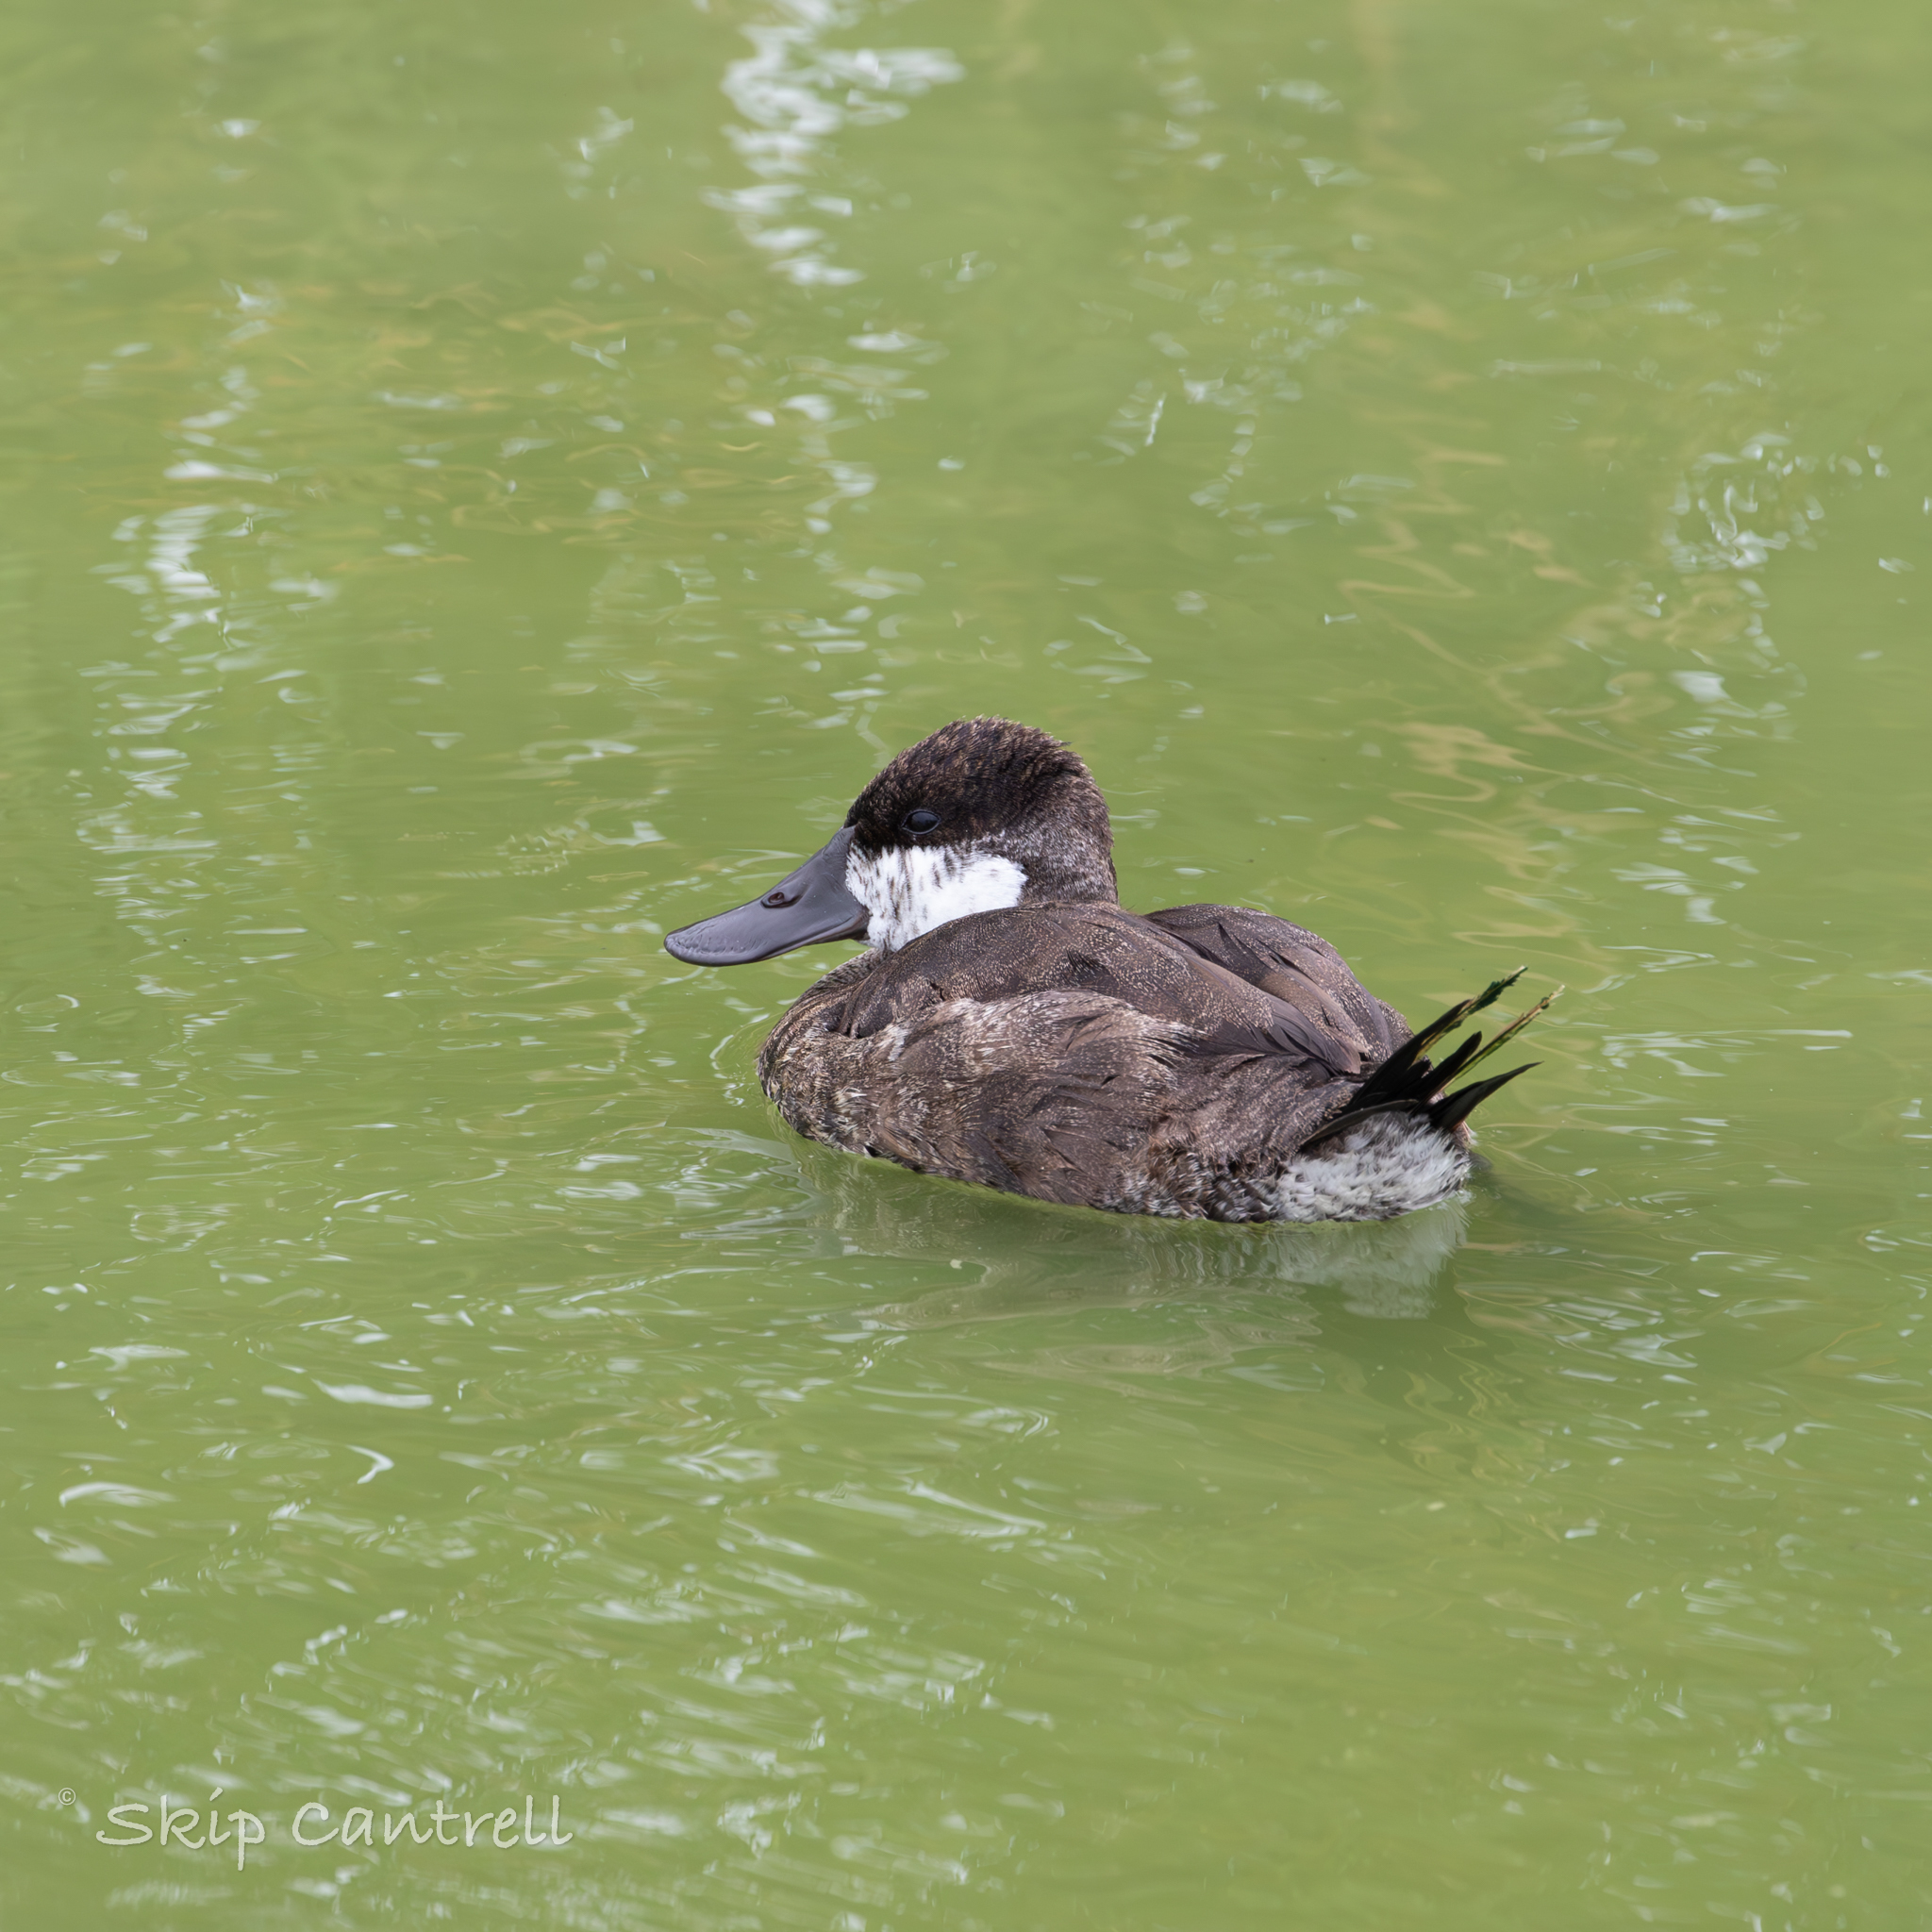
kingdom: Animalia
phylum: Chordata
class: Aves
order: Anseriformes
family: Anatidae
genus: Oxyura
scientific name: Oxyura jamaicensis
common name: Ruddy duck
